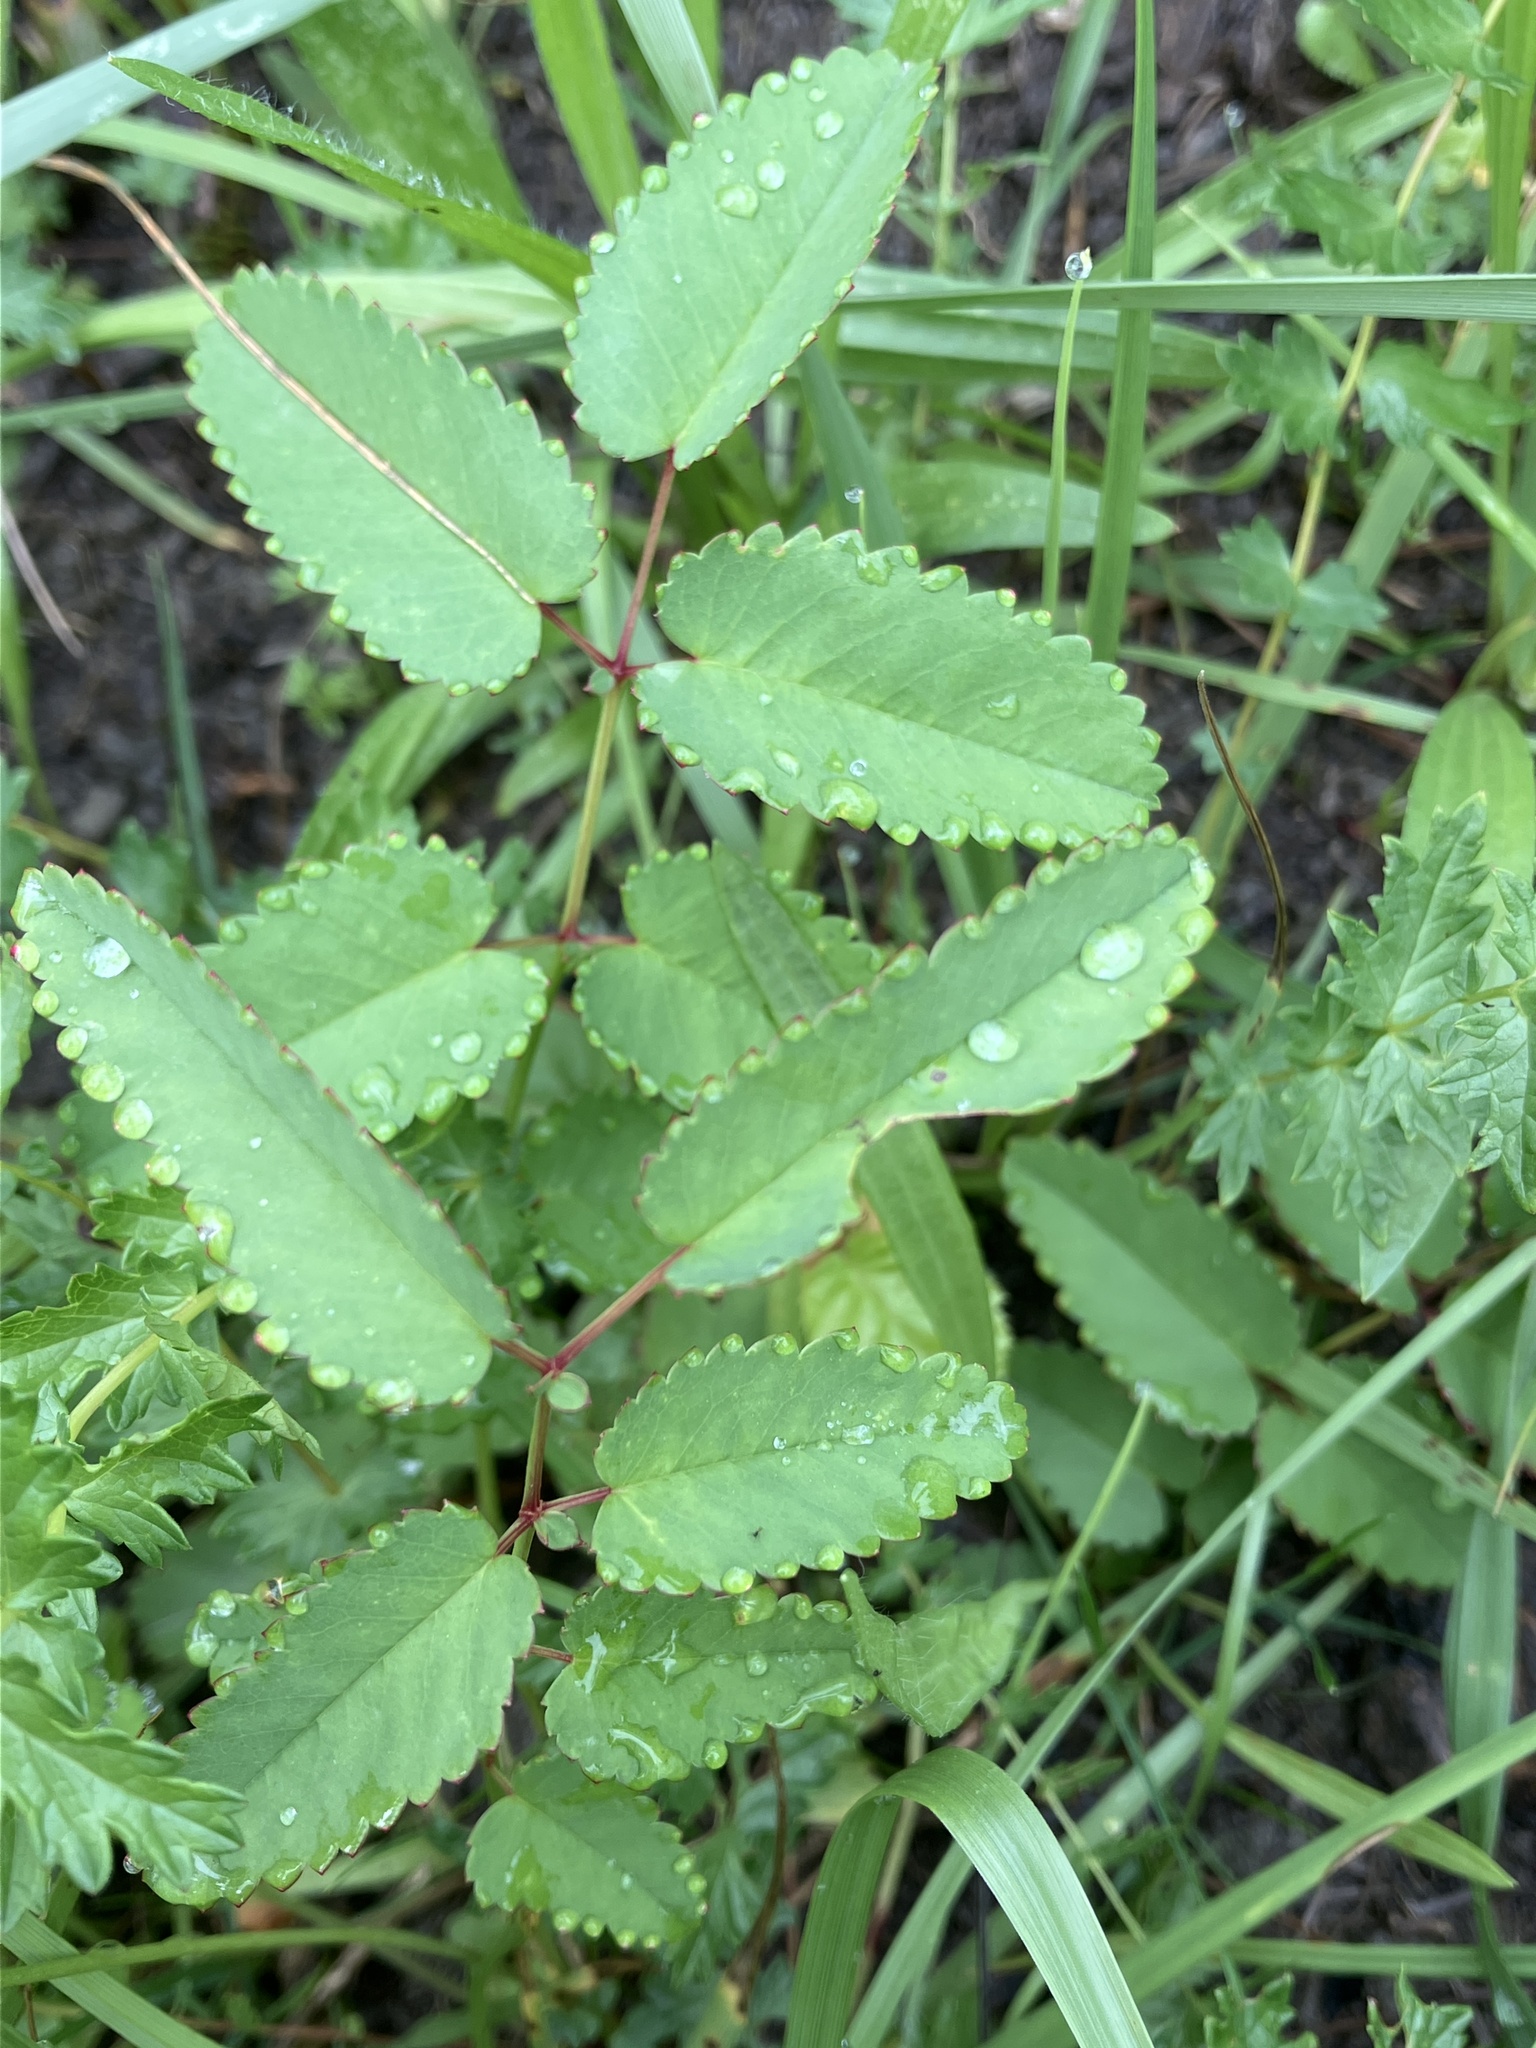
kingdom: Plantae
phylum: Tracheophyta
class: Magnoliopsida
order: Rosales
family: Rosaceae
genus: Sanguisorba
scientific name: Sanguisorba officinalis
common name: Great burnet
